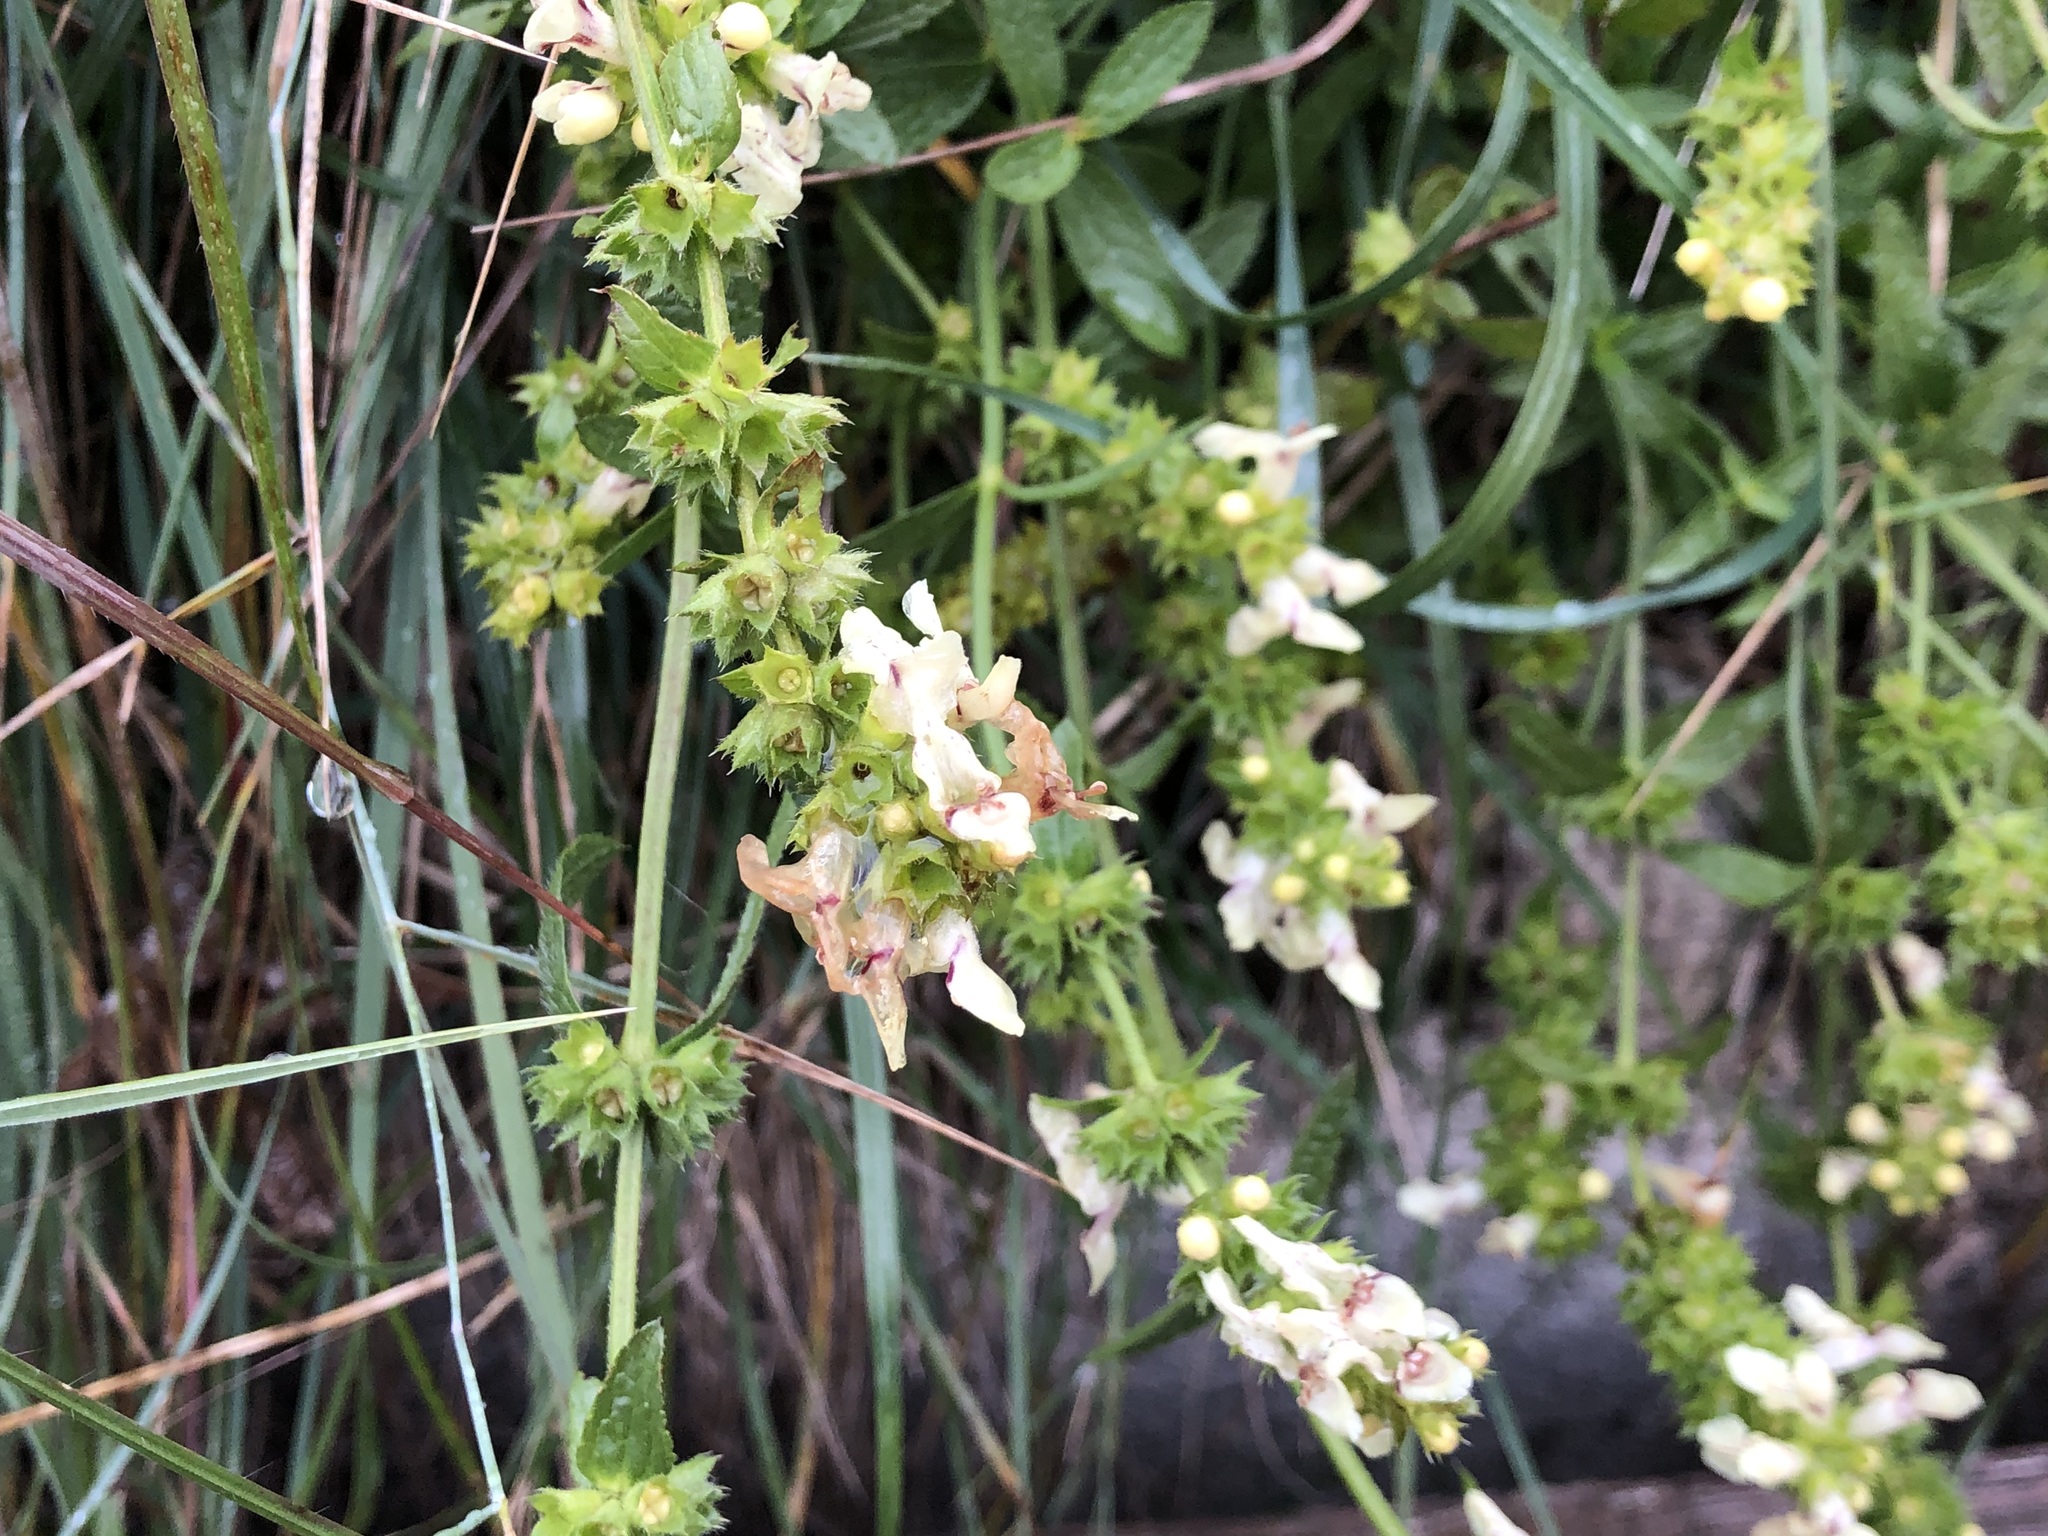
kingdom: Plantae
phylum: Tracheophyta
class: Magnoliopsida
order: Lamiales
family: Lamiaceae
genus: Stachys
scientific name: Stachys recta
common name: Perennial yellow-woundwort
